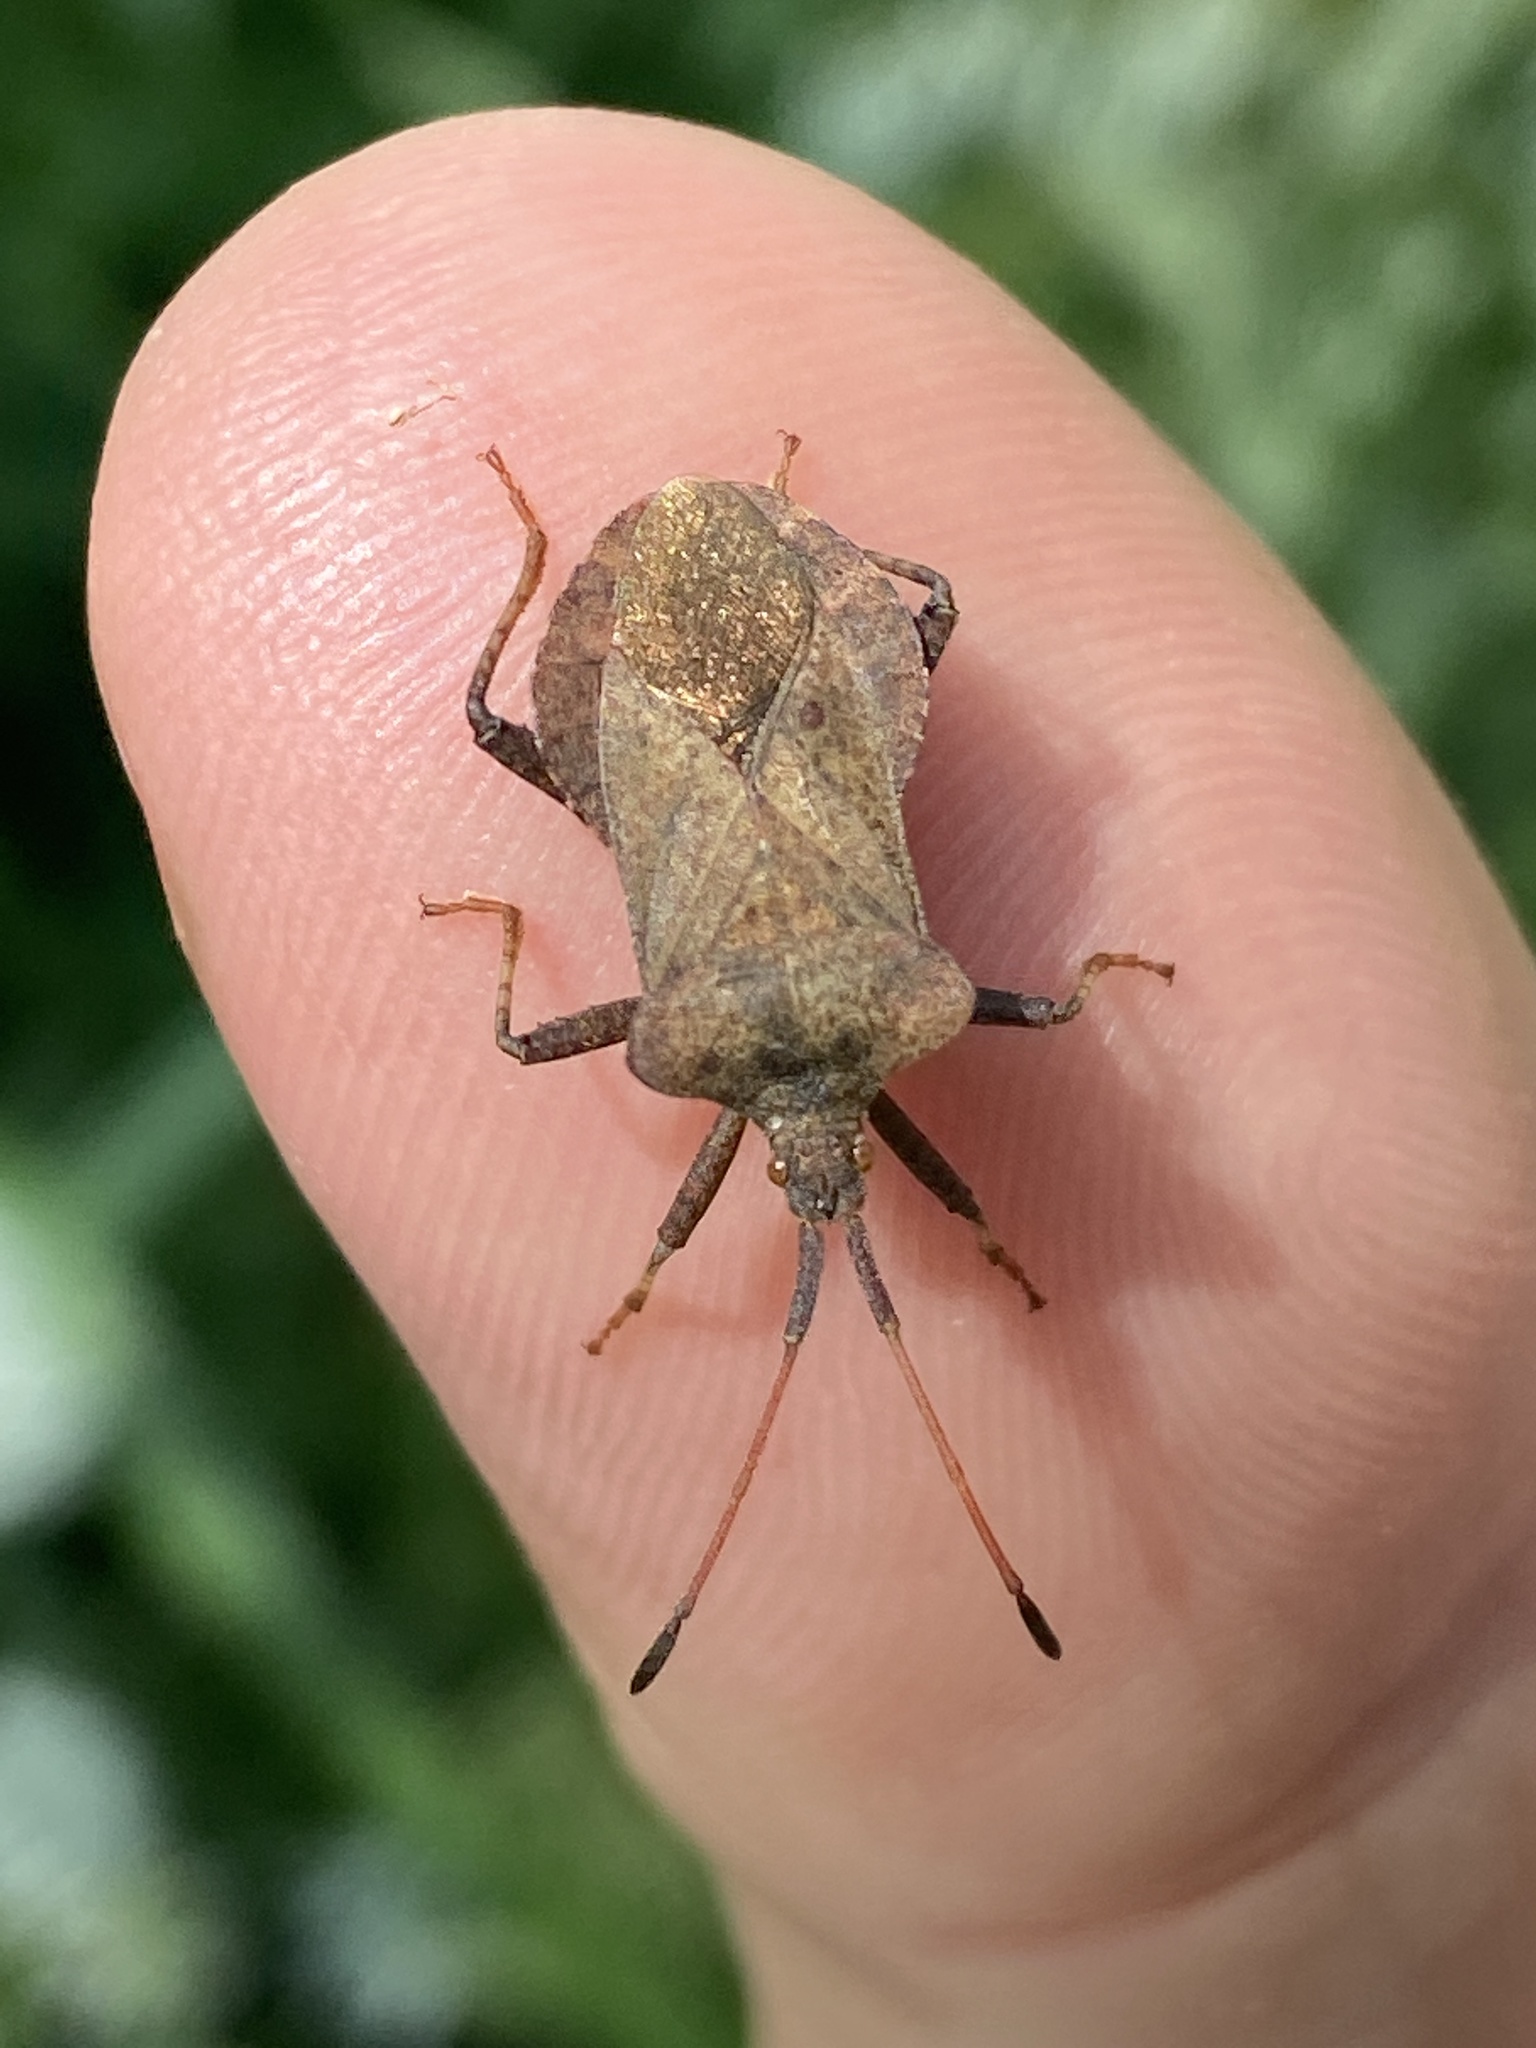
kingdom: Animalia
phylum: Arthropoda
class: Insecta
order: Hemiptera
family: Coreidae
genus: Coreus
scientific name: Coreus marginatus
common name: Dock bug
